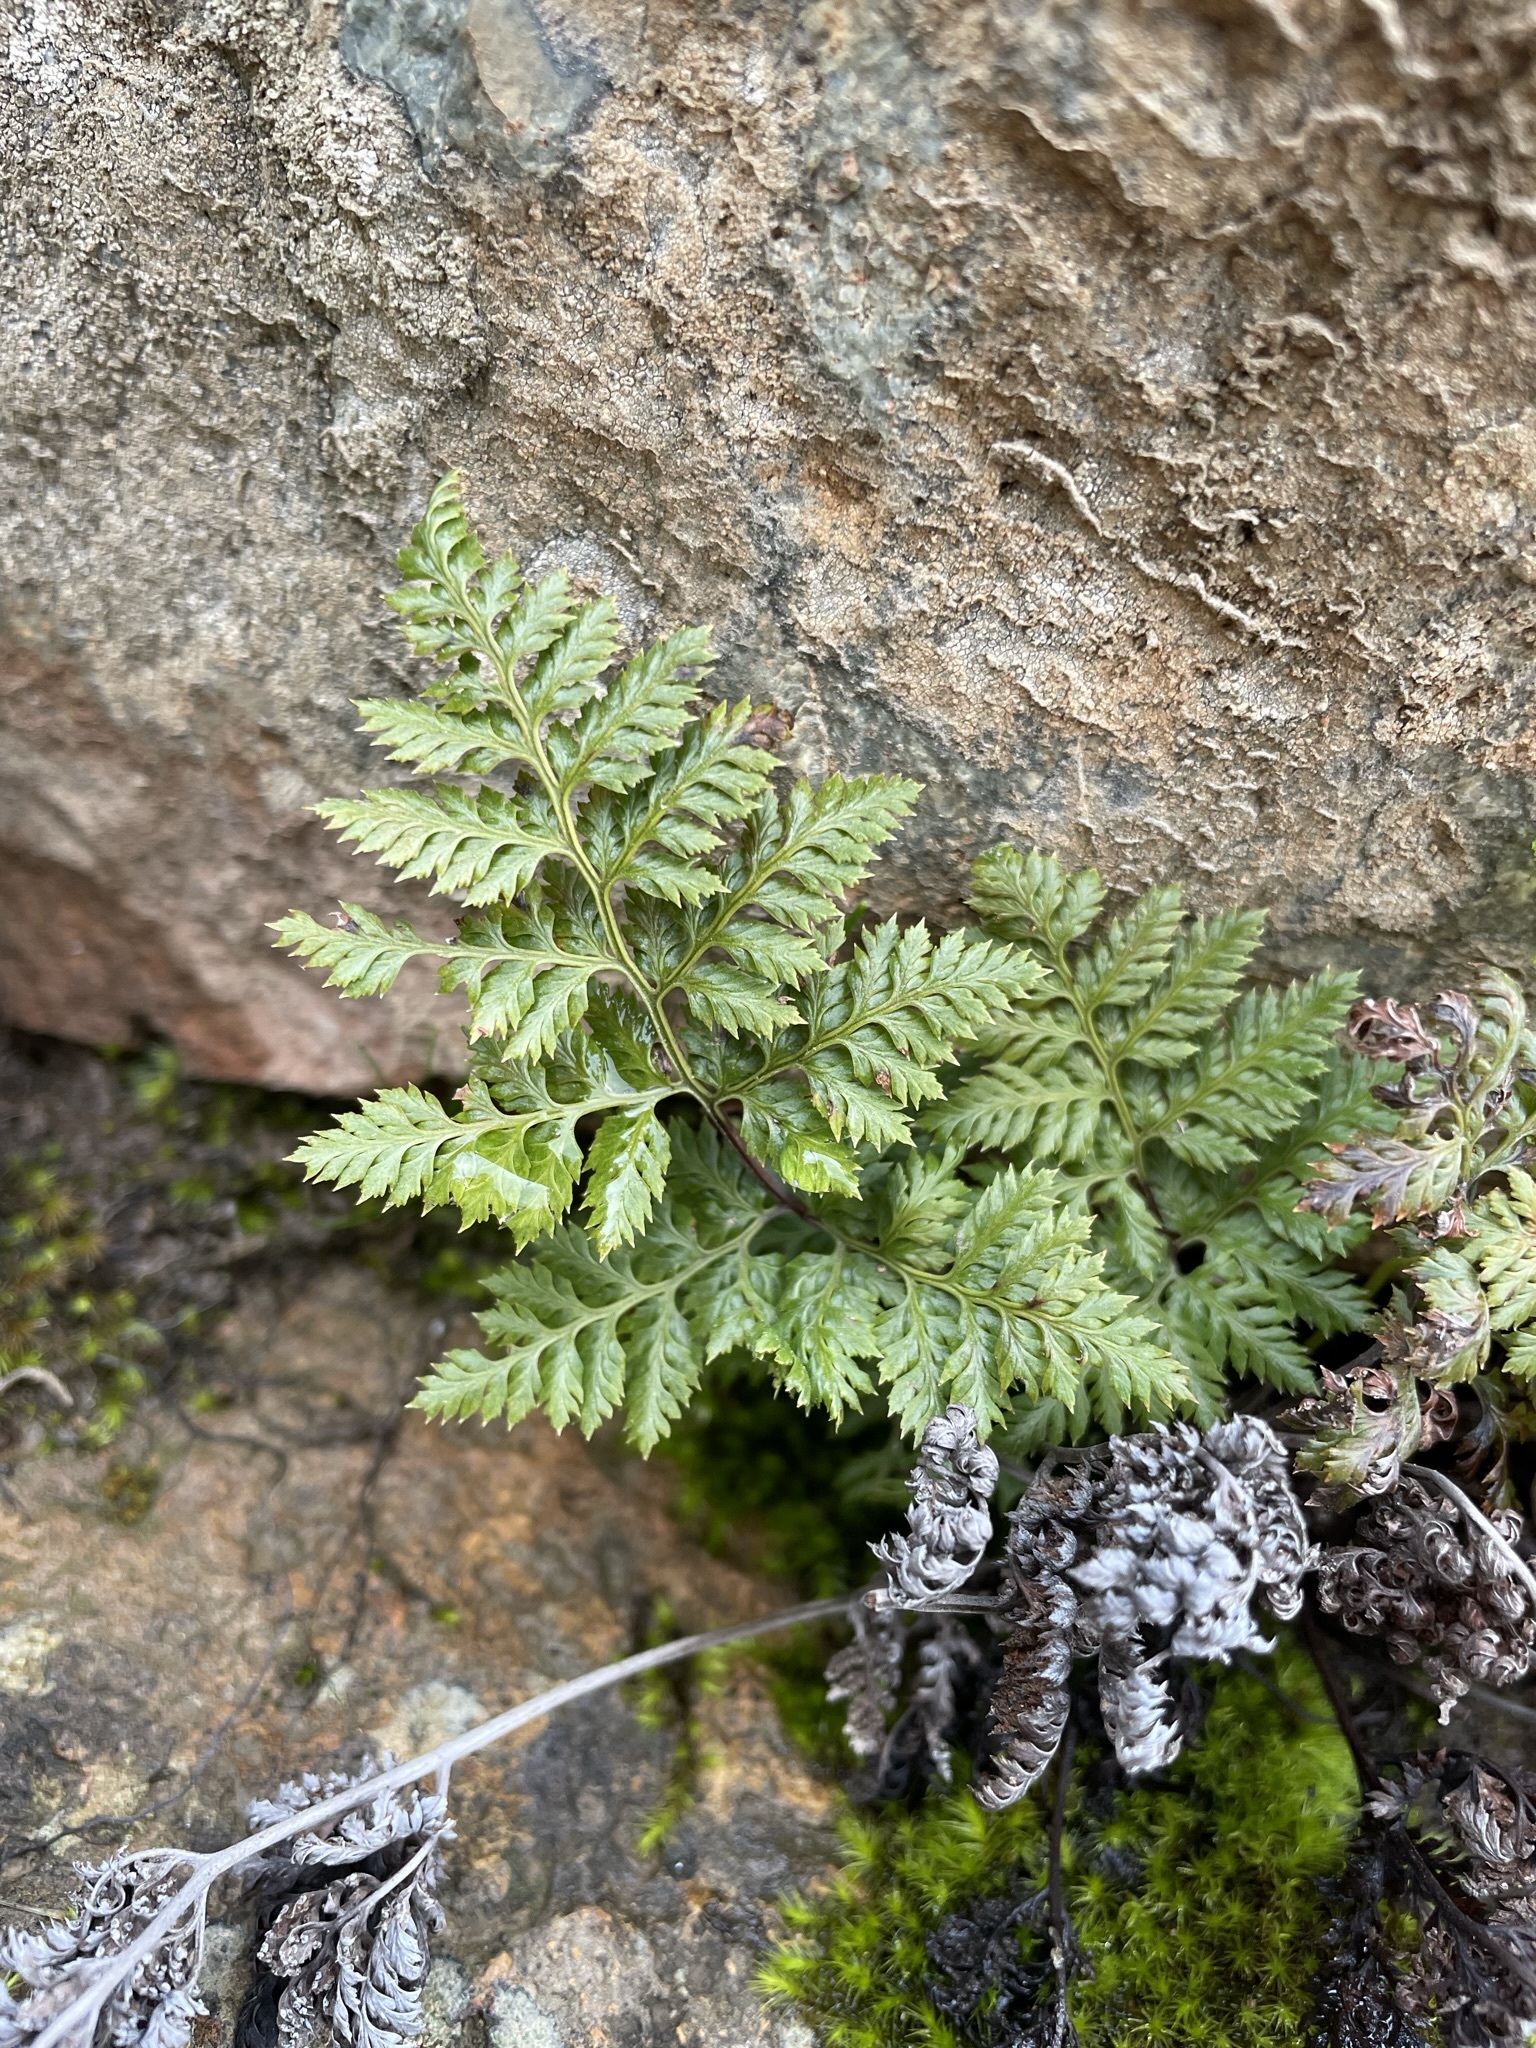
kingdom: Plantae
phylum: Tracheophyta
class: Polypodiopsida
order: Polypodiales
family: Pteridaceae
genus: Aspidotis
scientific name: Aspidotis californica
